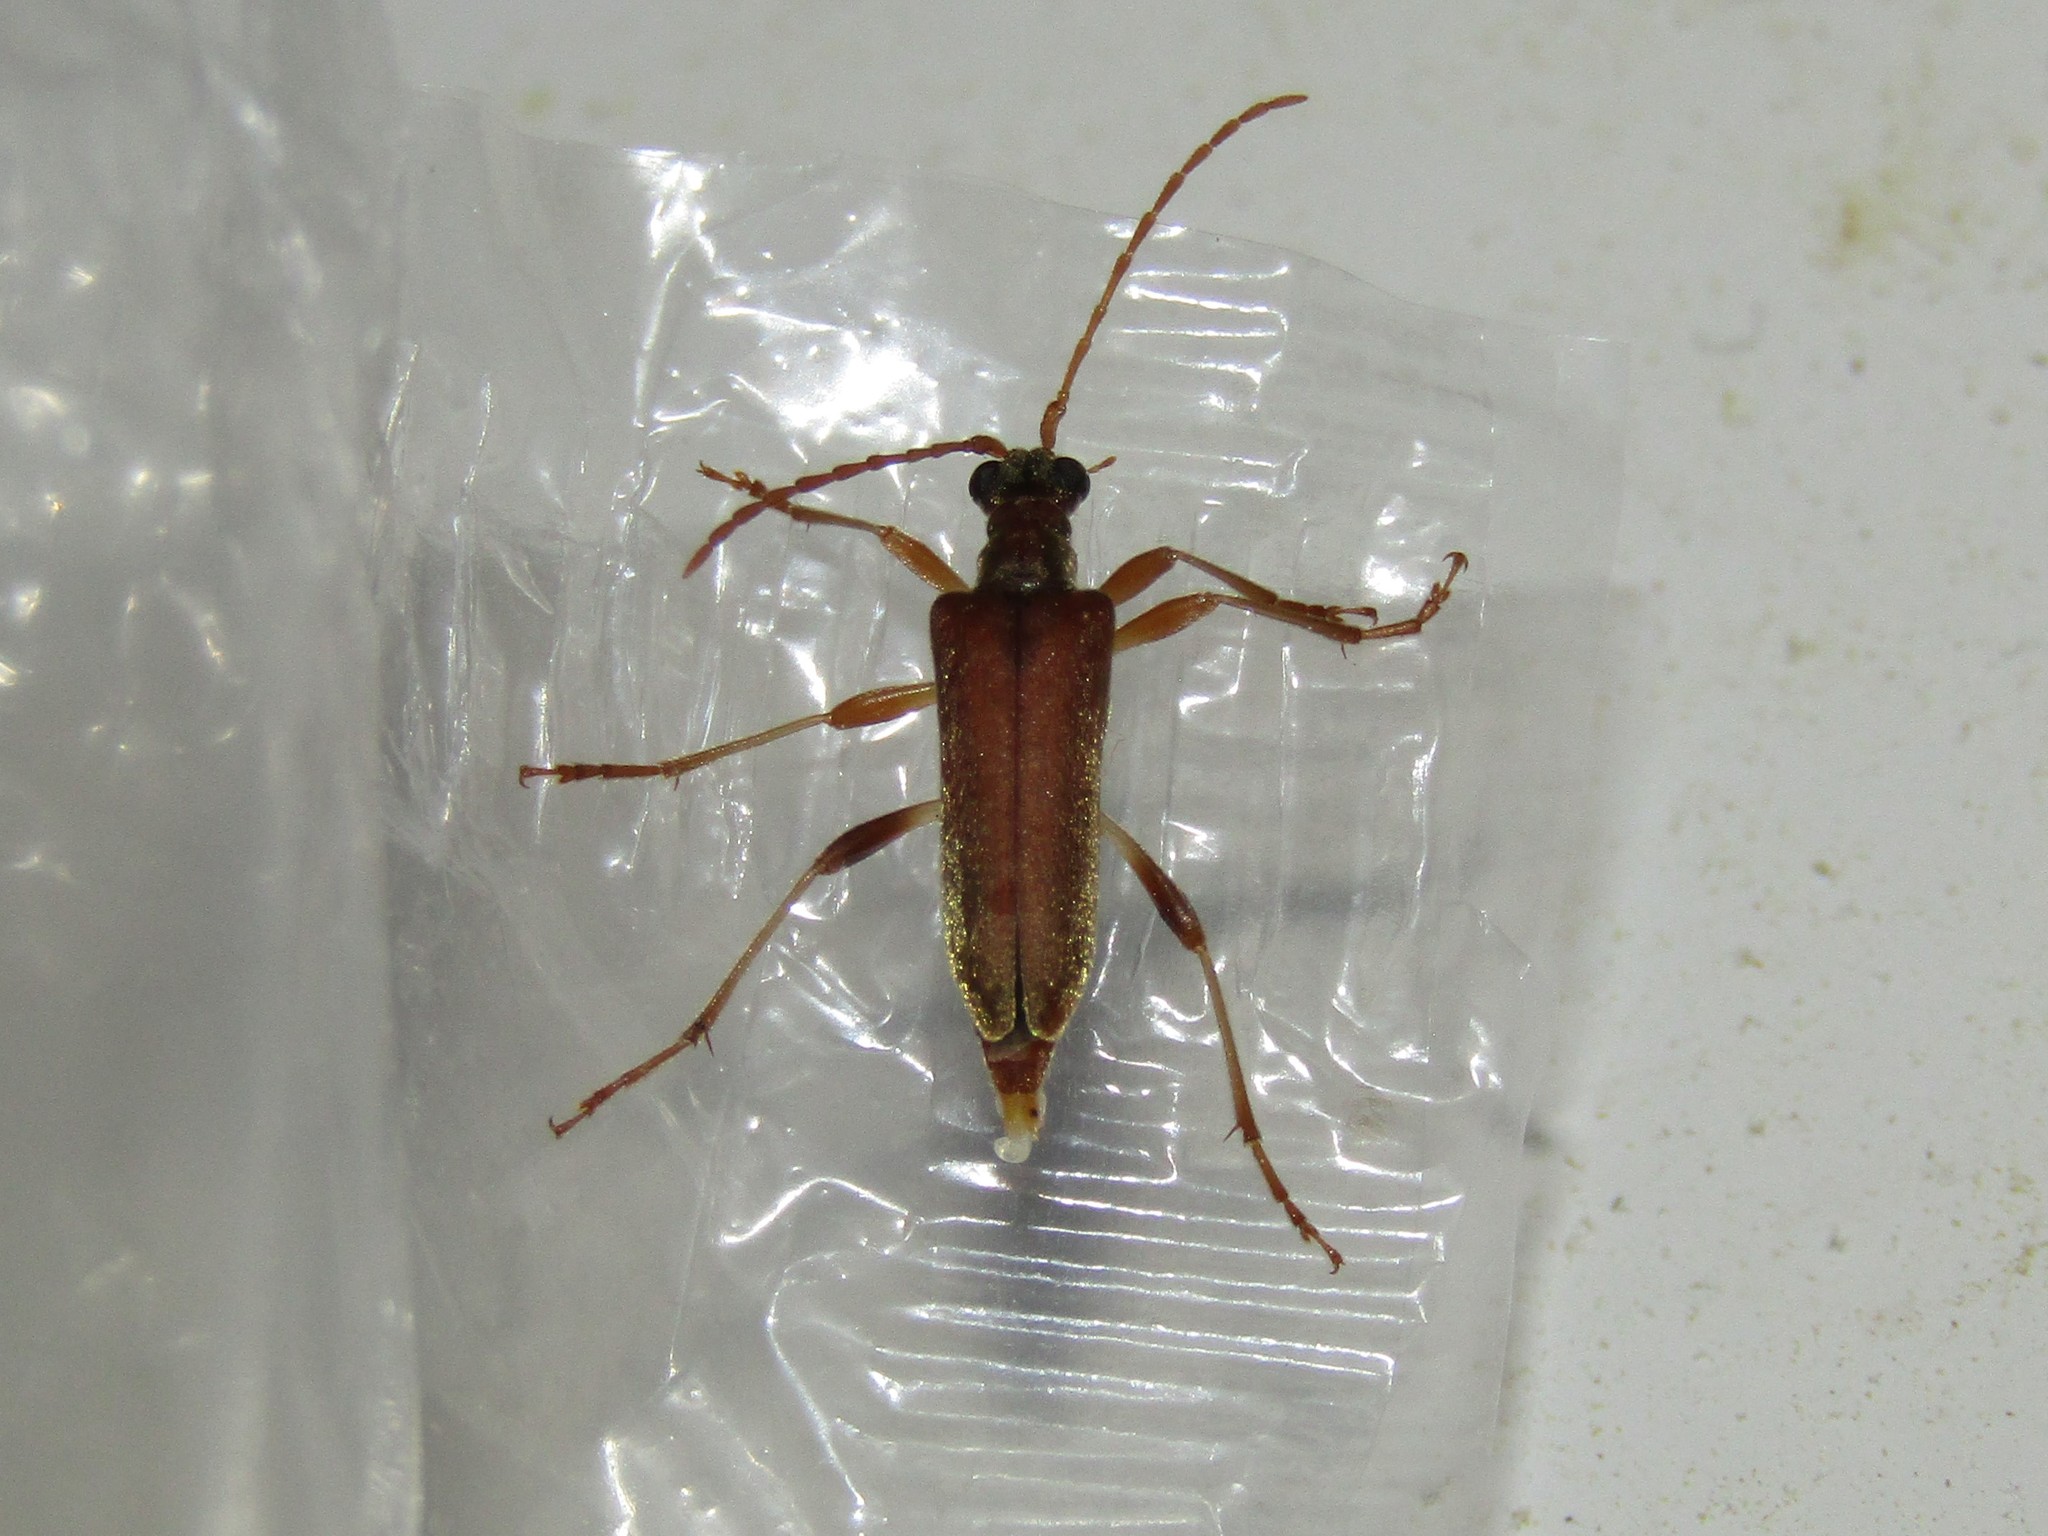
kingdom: Animalia
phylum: Arthropoda
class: Insecta
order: Coleoptera
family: Cerambycidae
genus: Stenocorus
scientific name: Stenocorus cinnamopterus
